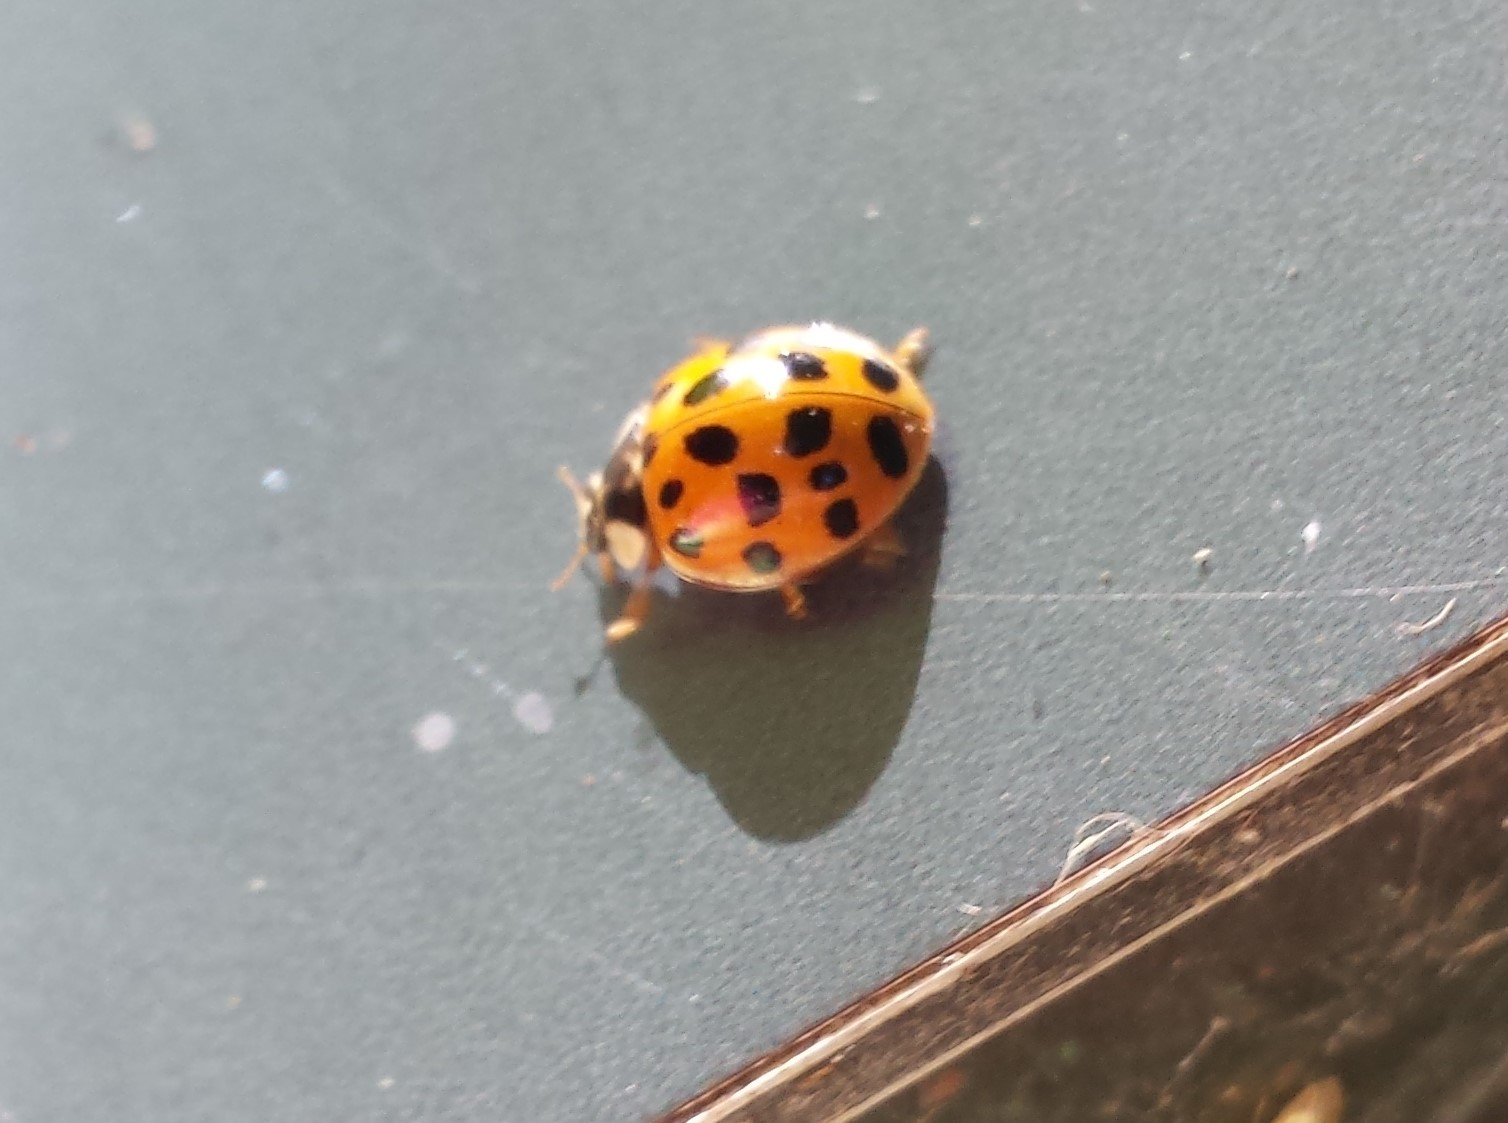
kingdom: Animalia
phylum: Arthropoda
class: Insecta
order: Coleoptera
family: Coccinellidae
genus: Harmonia
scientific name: Harmonia axyridis
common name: Harlequin ladybird
